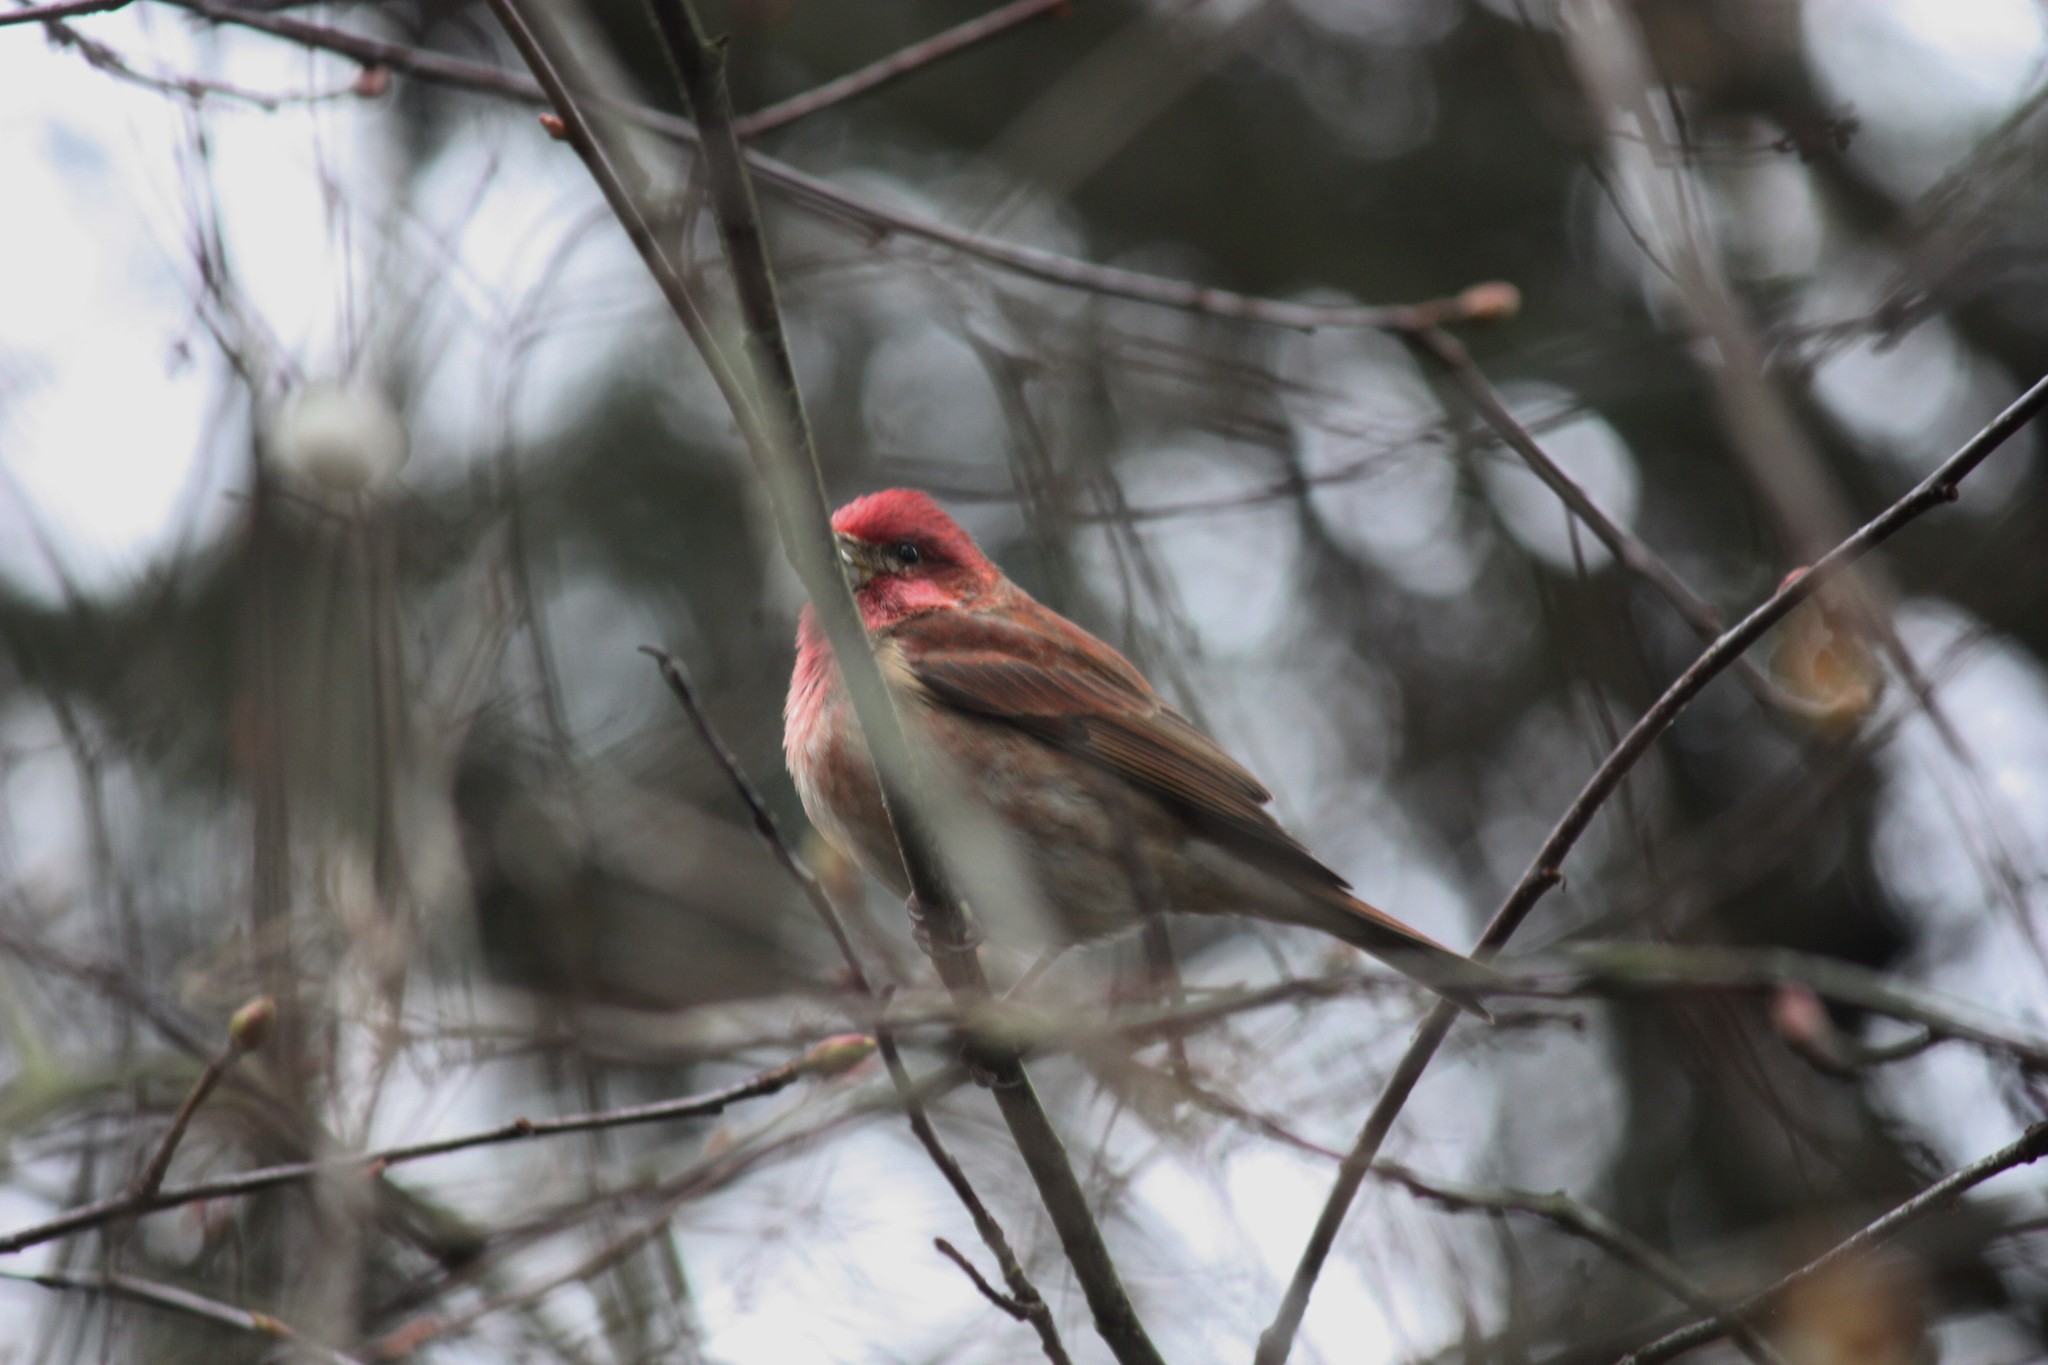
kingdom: Animalia
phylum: Chordata
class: Aves
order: Passeriformes
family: Fringillidae
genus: Haemorhous
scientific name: Haemorhous purpureus
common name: Purple finch
